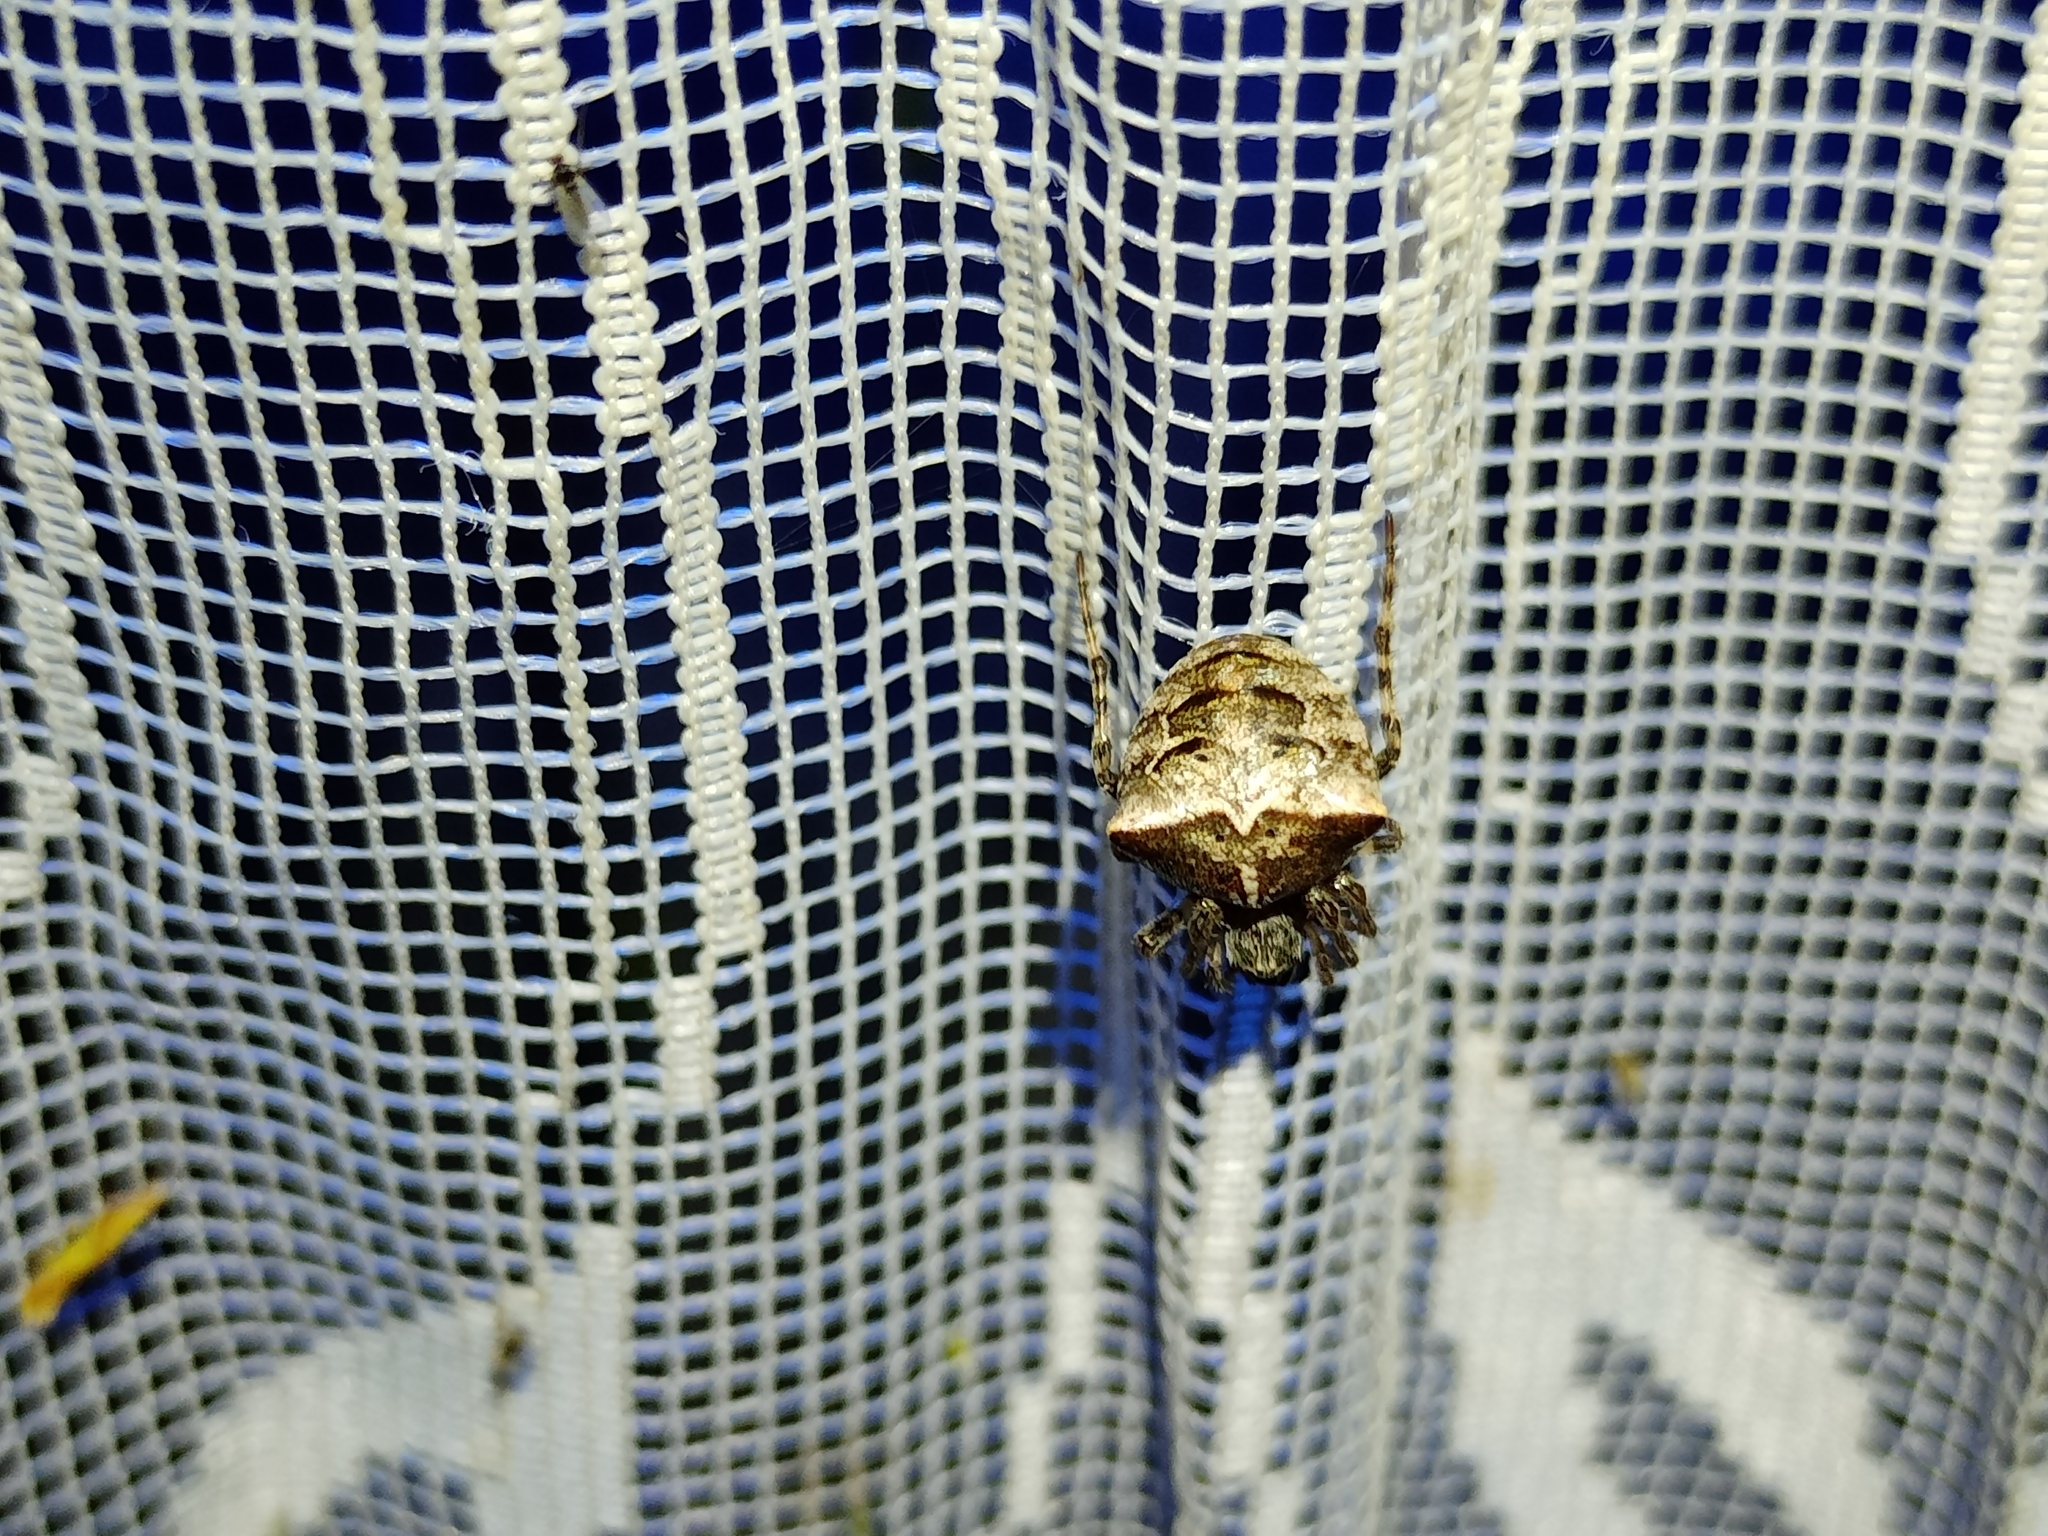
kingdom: Animalia
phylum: Arthropoda
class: Arachnida
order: Araneae
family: Araneidae
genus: Gibbaranea
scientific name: Gibbaranea bituberculata
